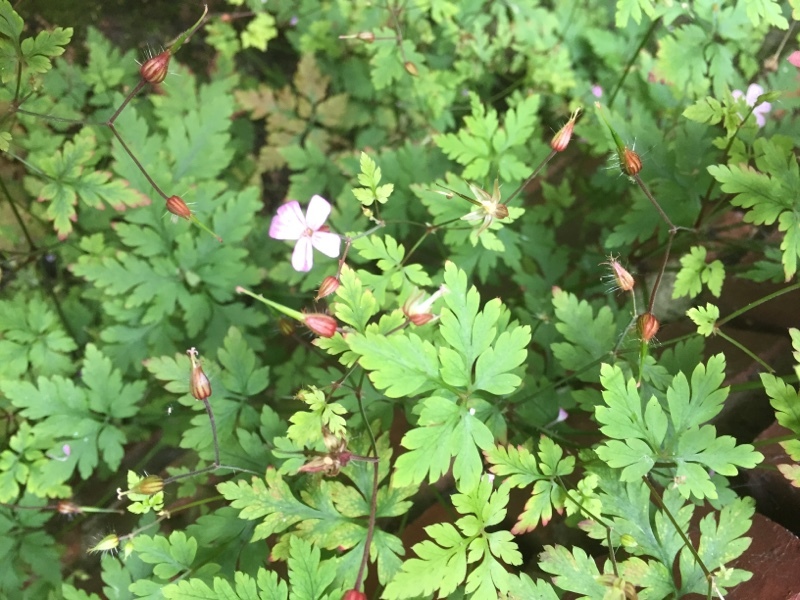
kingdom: Plantae
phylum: Tracheophyta
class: Magnoliopsida
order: Geraniales
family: Geraniaceae
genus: Geranium
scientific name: Geranium robertianum
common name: Herb-robert
